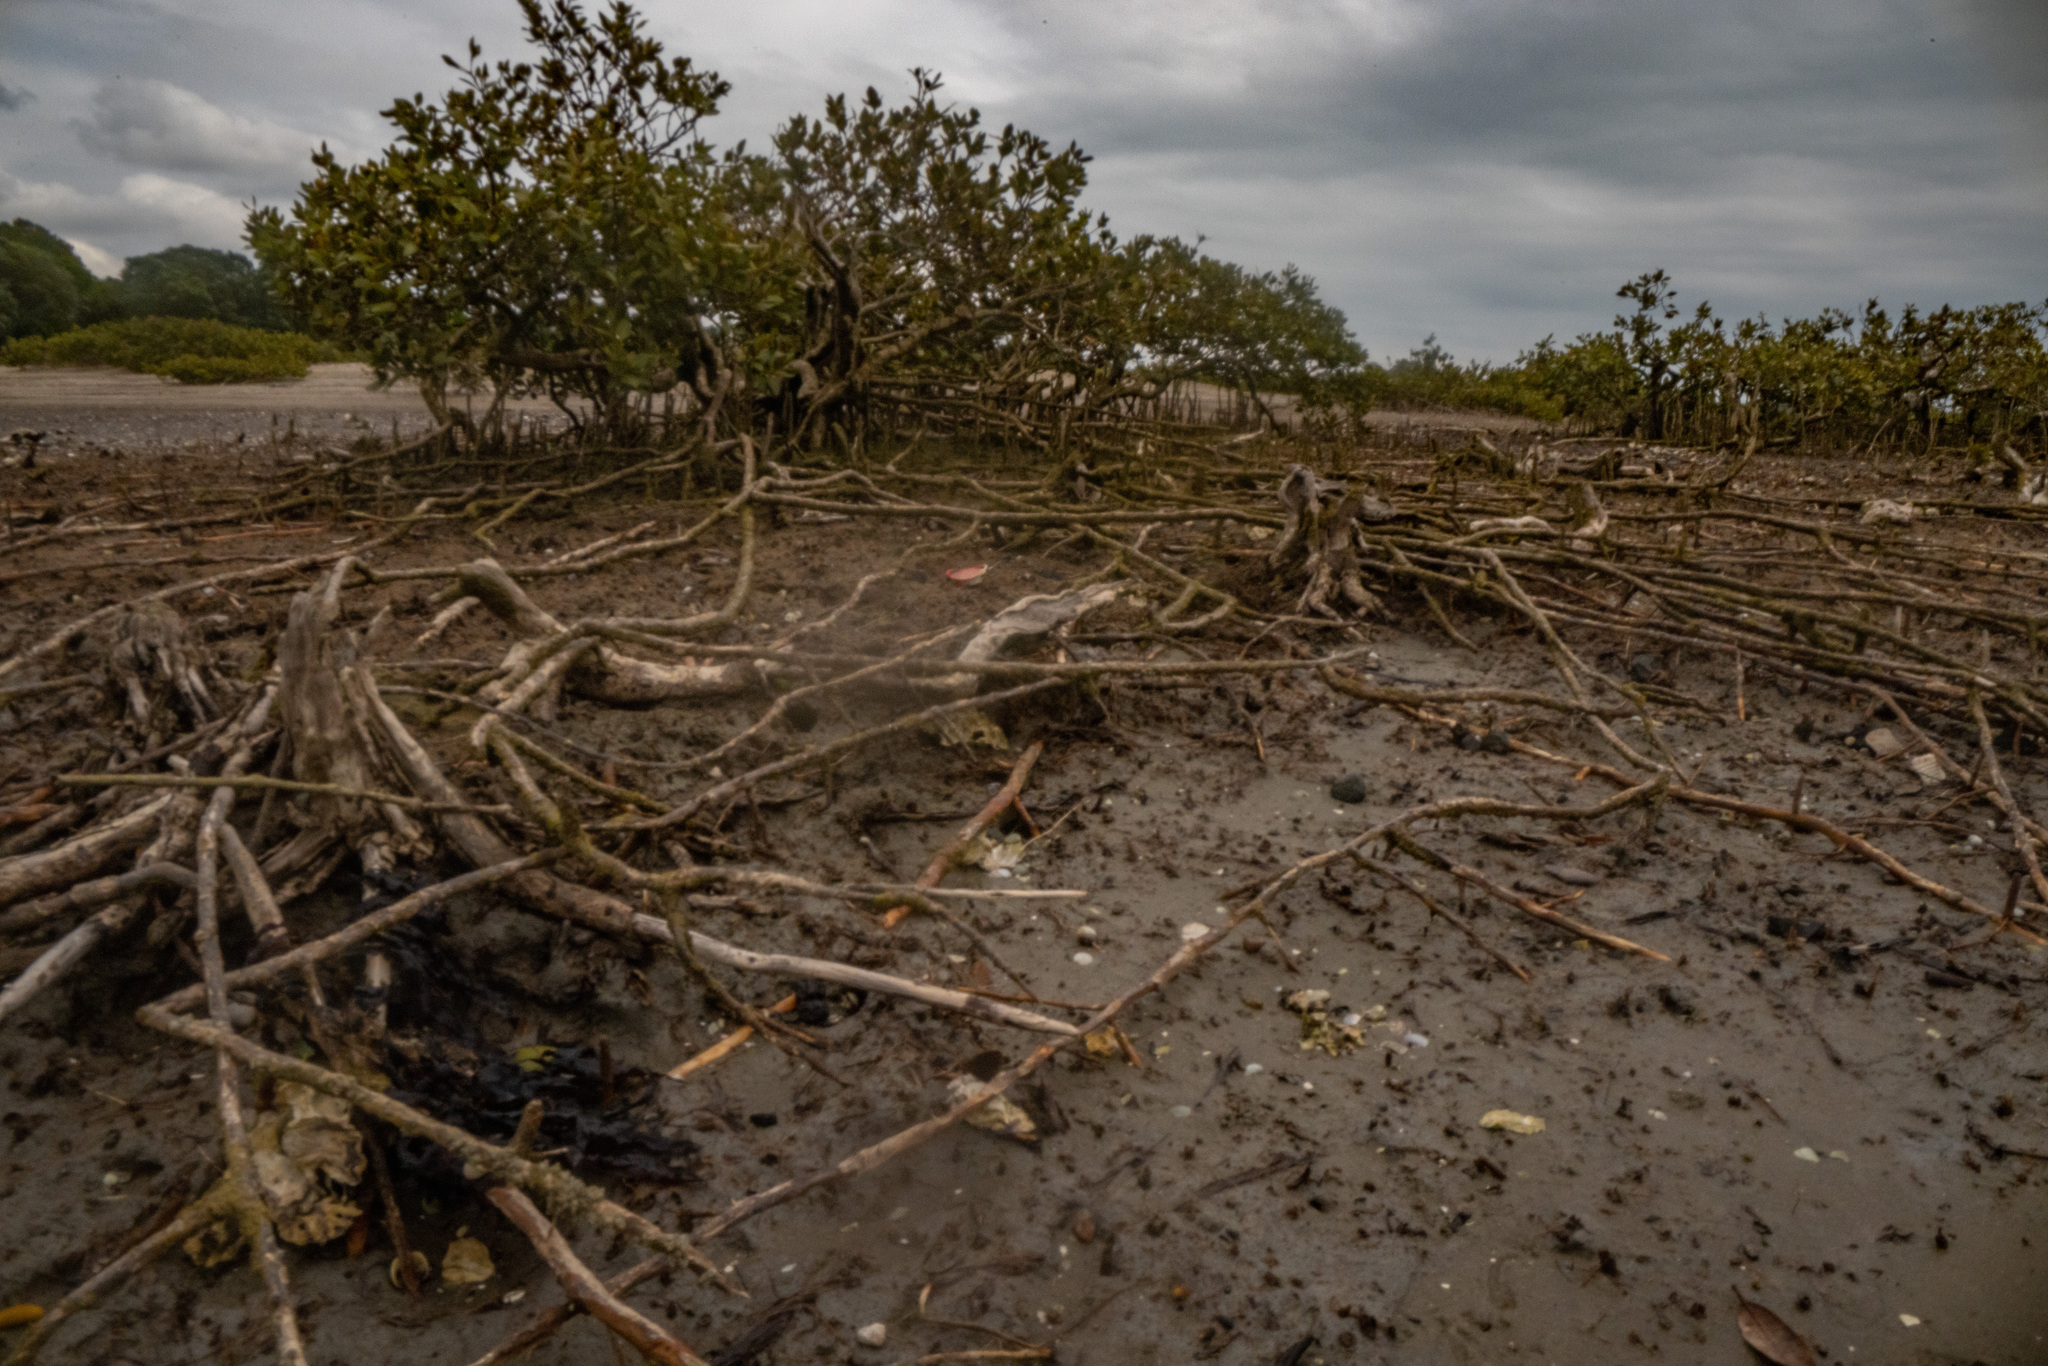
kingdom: Plantae
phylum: Tracheophyta
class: Magnoliopsida
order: Lamiales
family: Acanthaceae
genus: Avicennia
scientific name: Avicennia marina
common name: Gray mangrove
